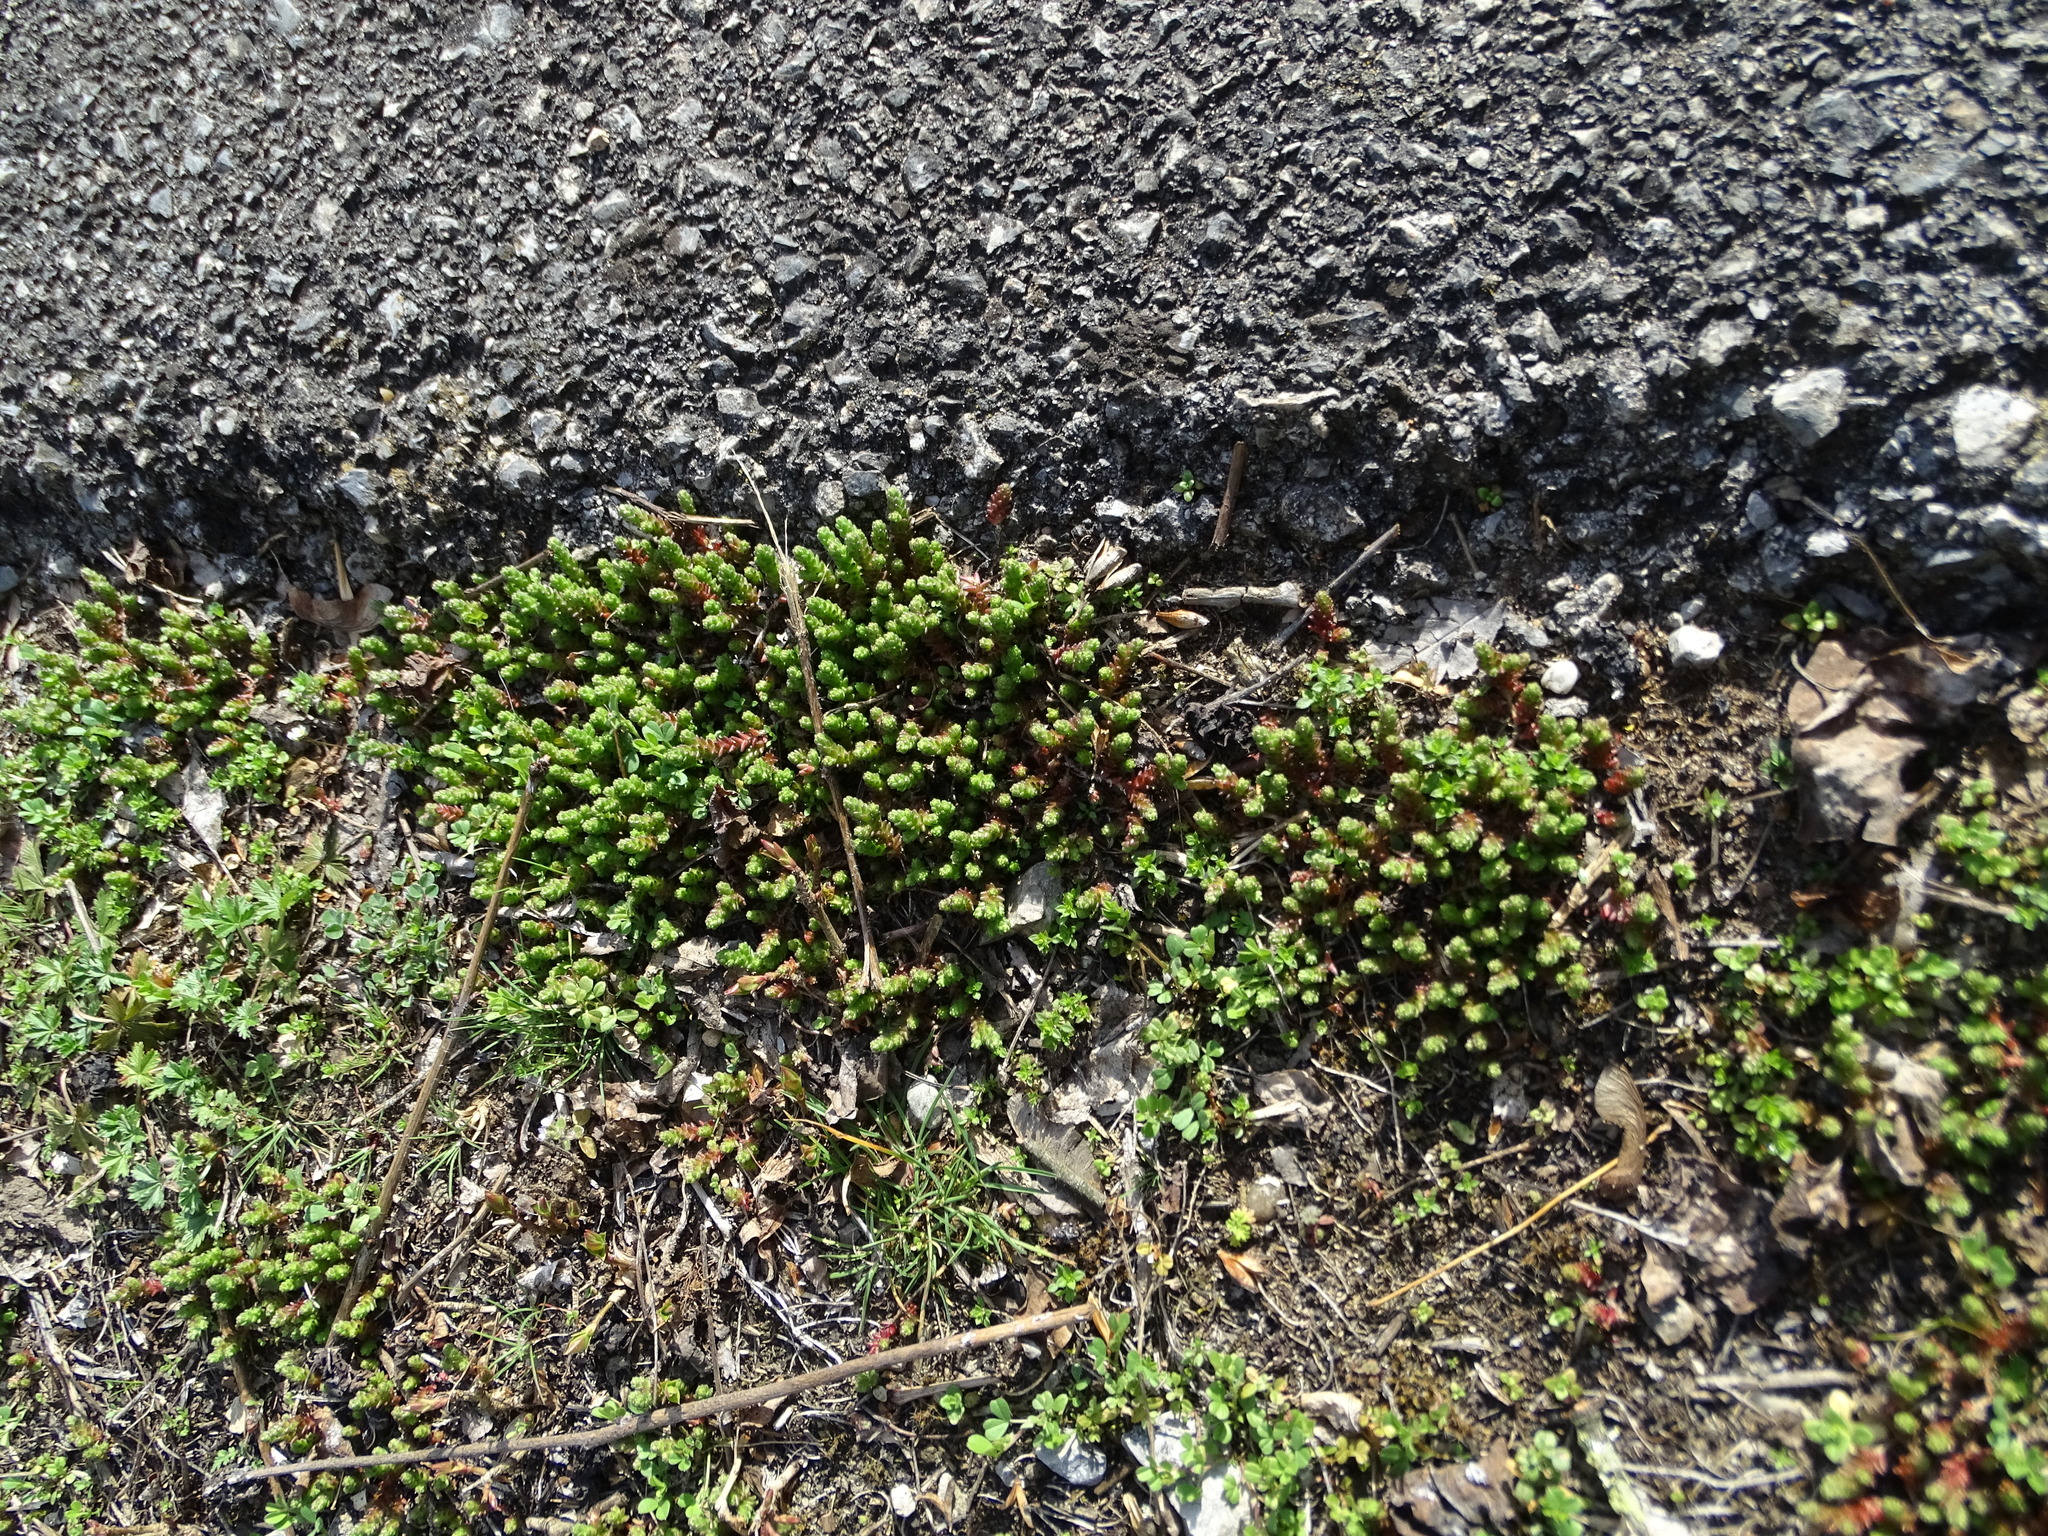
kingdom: Plantae
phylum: Tracheophyta
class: Magnoliopsida
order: Saxifragales
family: Crassulaceae
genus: Sedum
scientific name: Sedum acre
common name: Biting stonecrop
